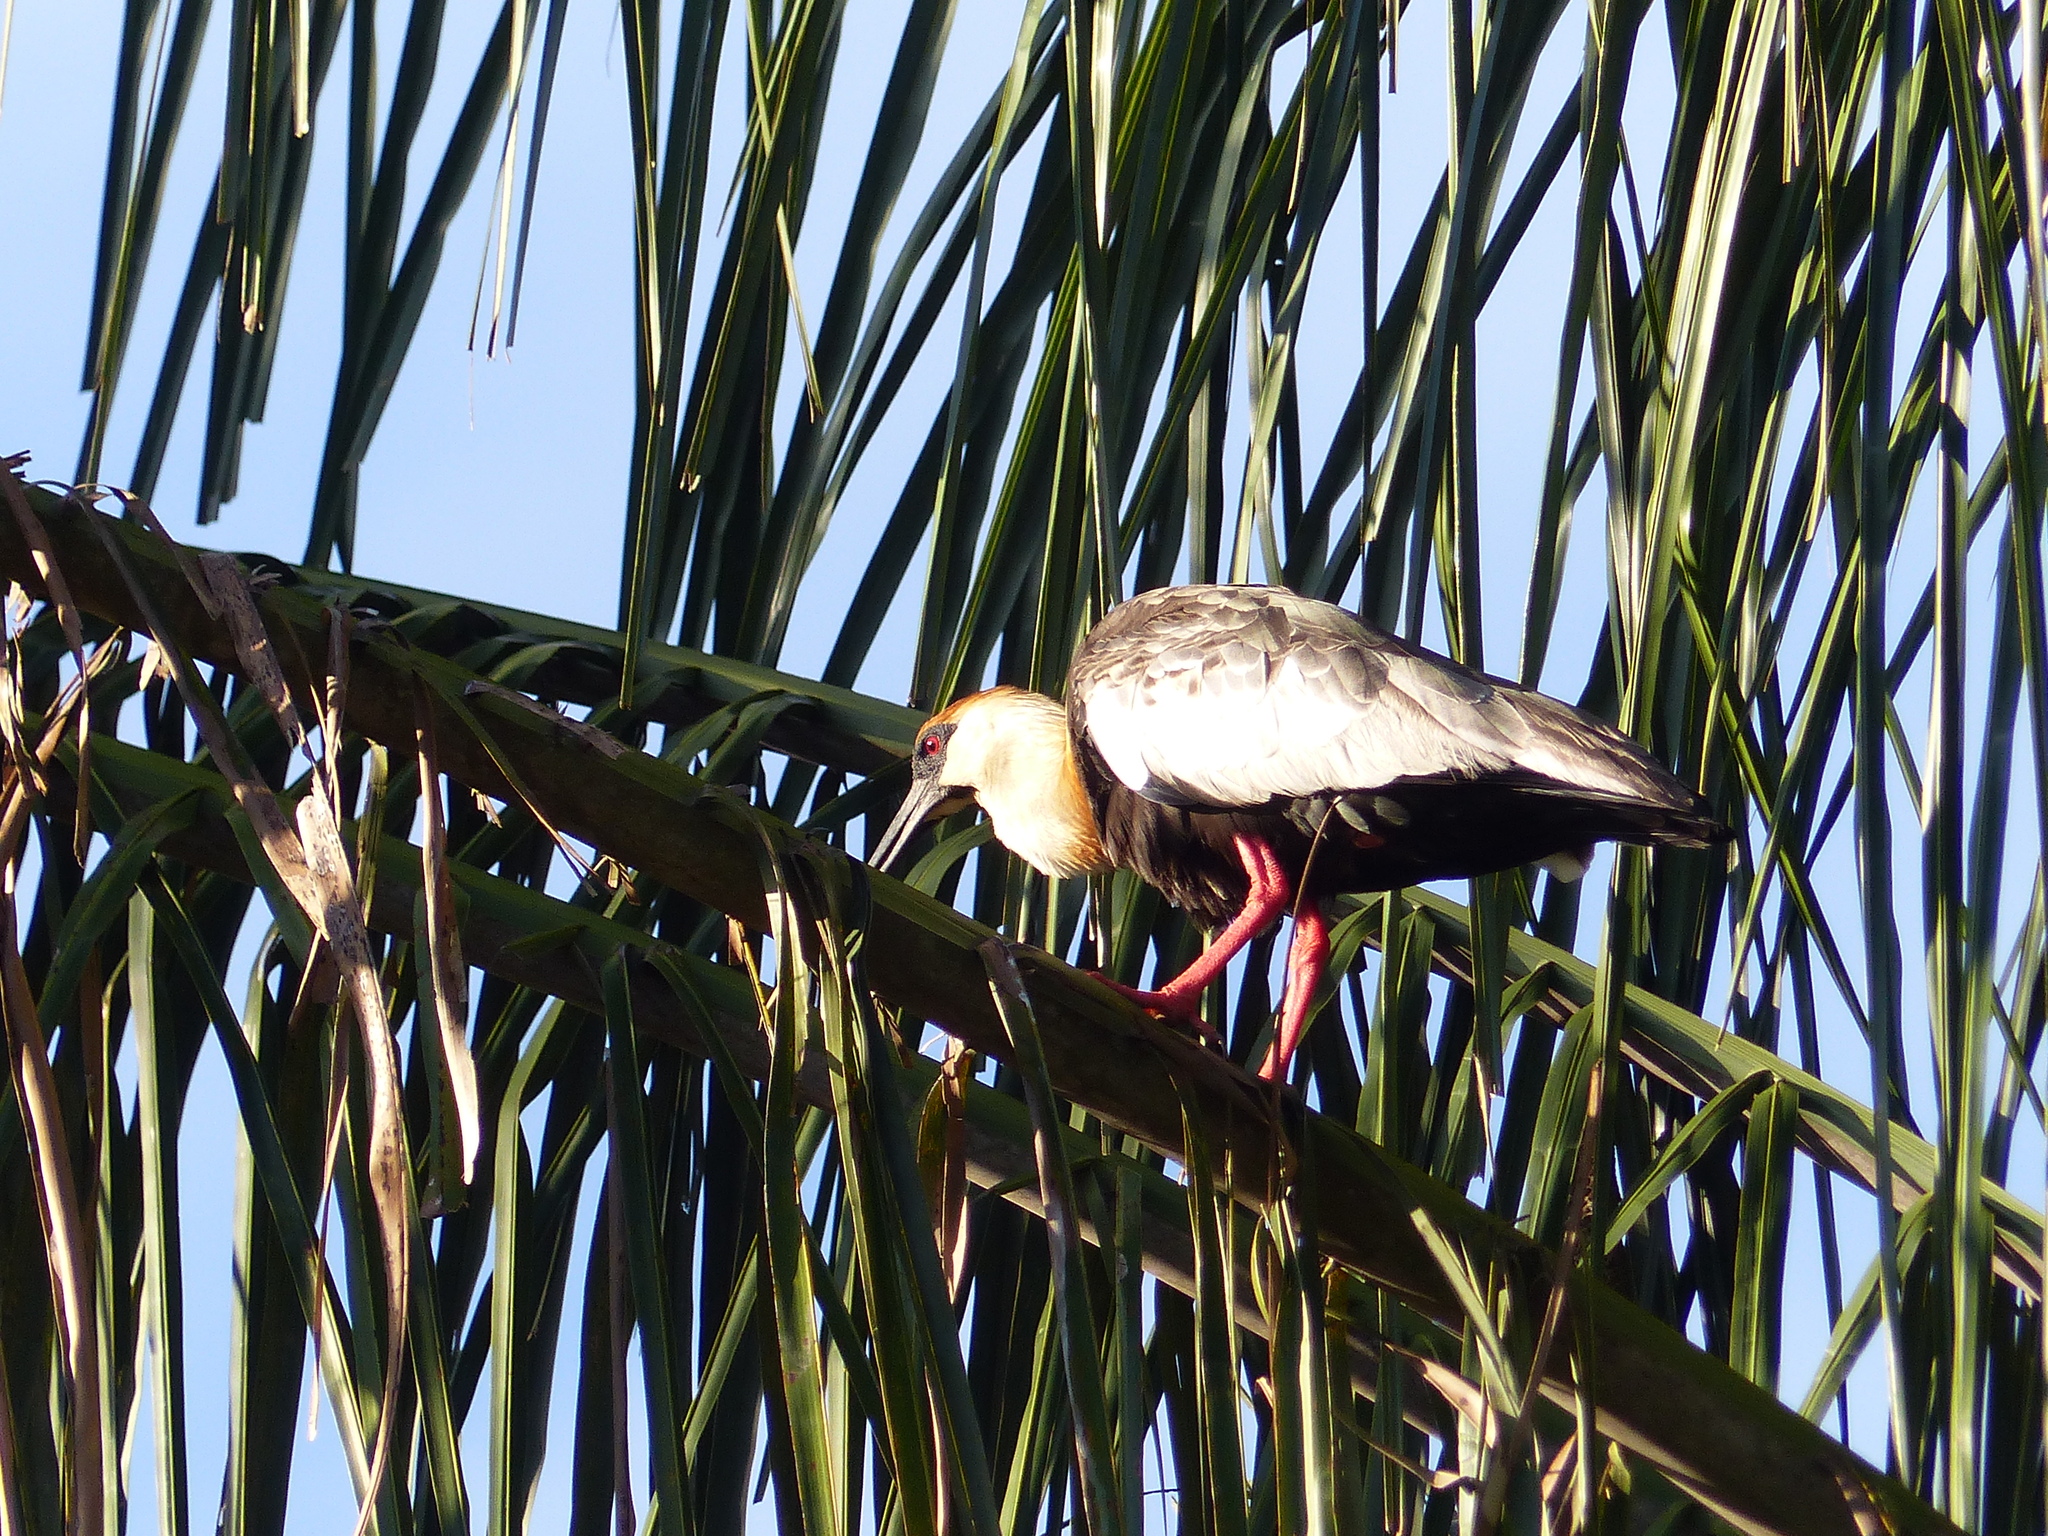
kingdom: Animalia
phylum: Chordata
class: Aves
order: Pelecaniformes
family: Threskiornithidae
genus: Theristicus
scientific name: Theristicus caudatus
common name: Buff-necked ibis
